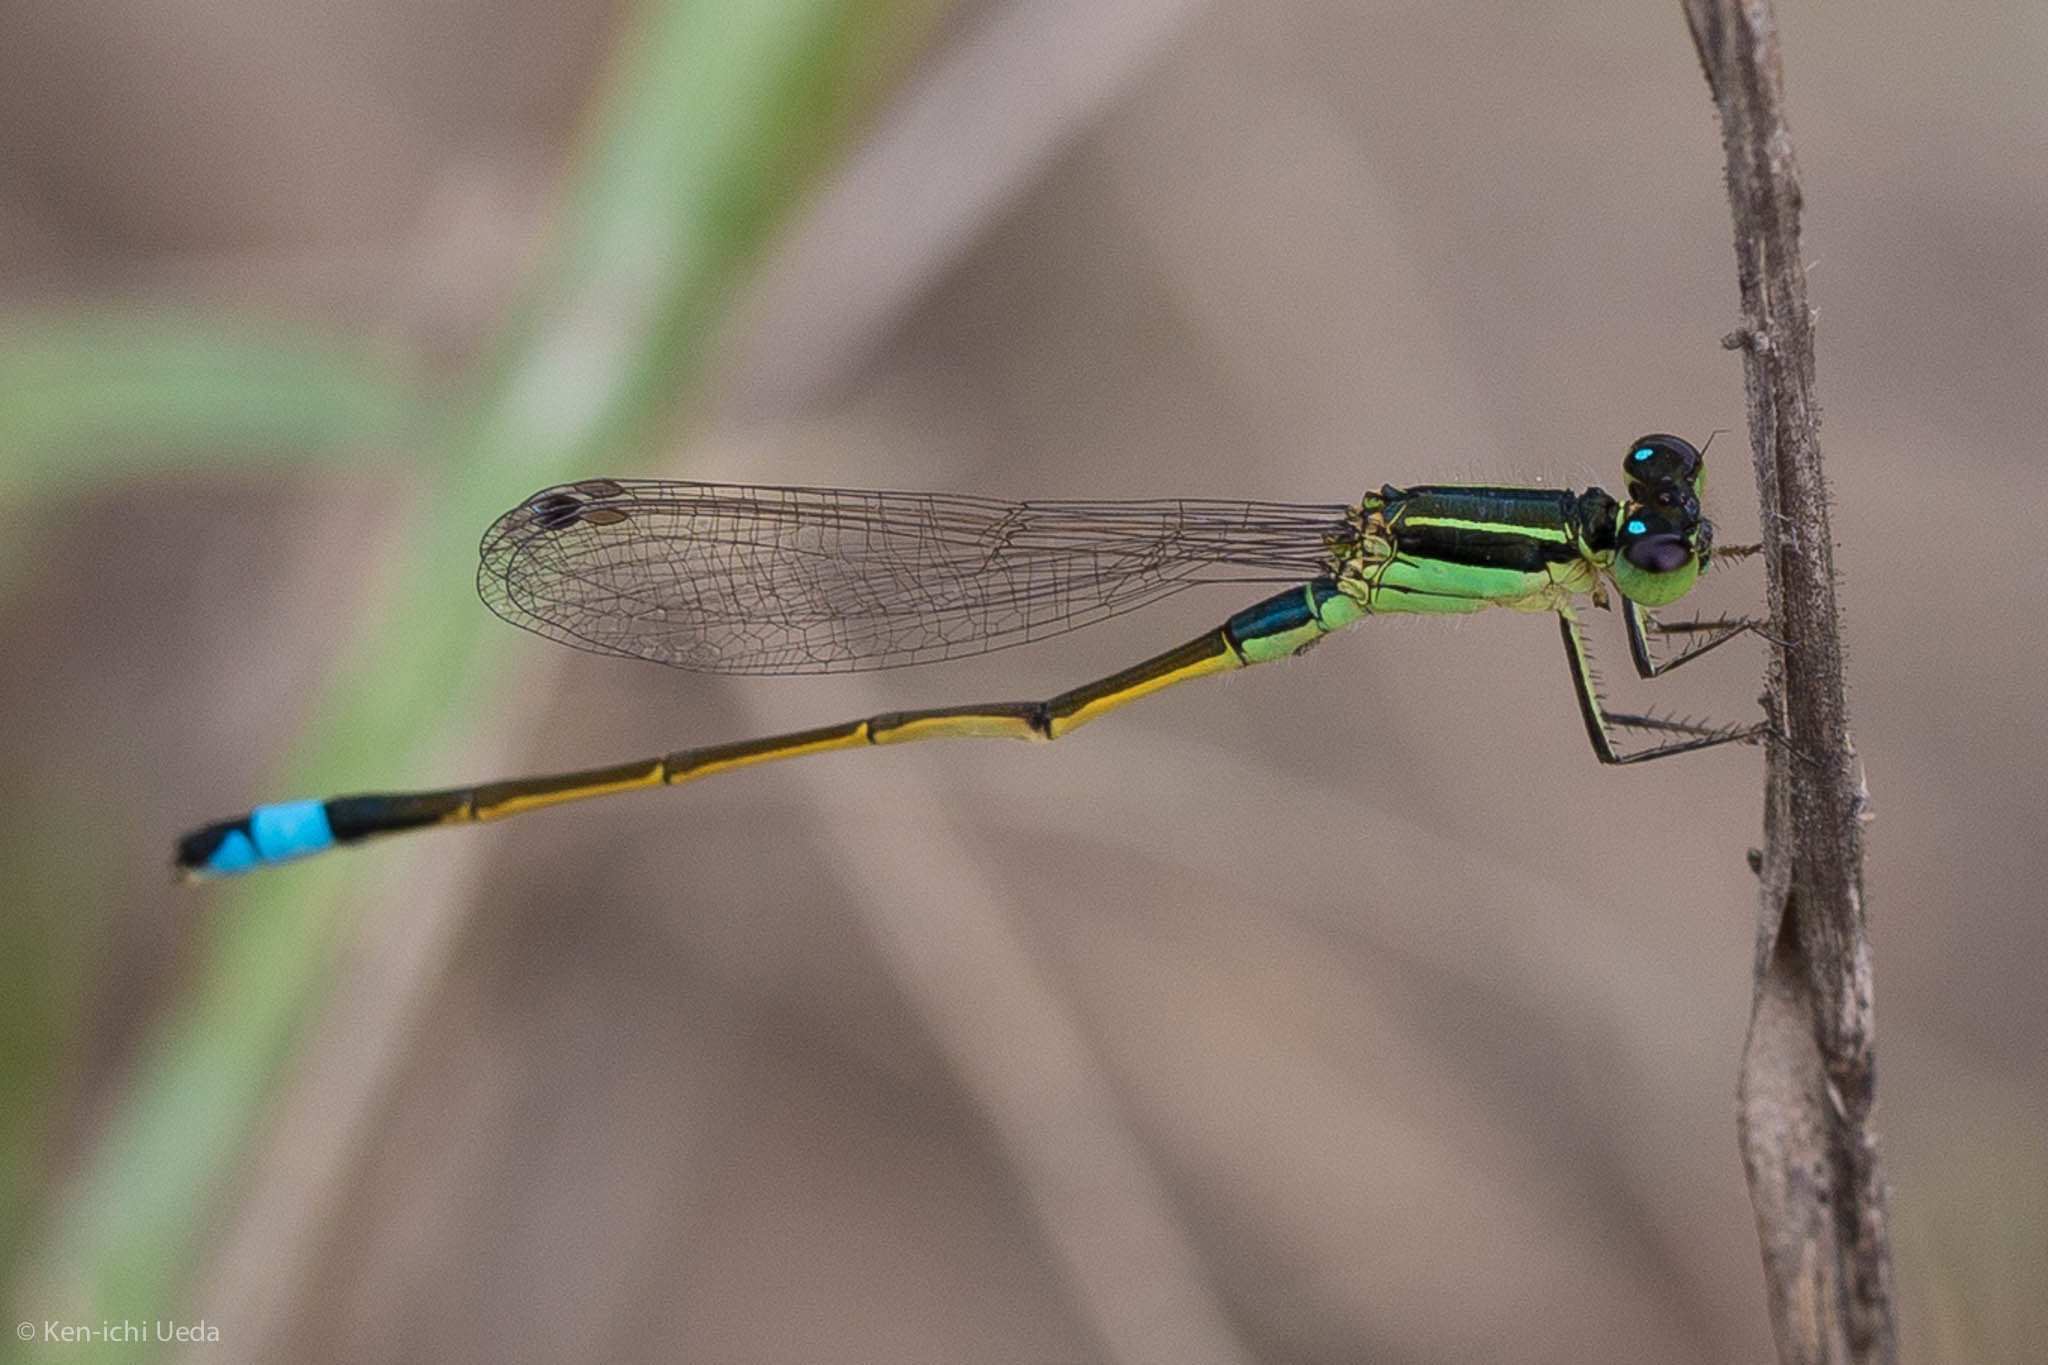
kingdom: Animalia
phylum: Arthropoda
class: Insecta
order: Odonata
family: Coenagrionidae
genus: Ischnura
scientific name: Ischnura ramburii
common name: Rambur's forktail
